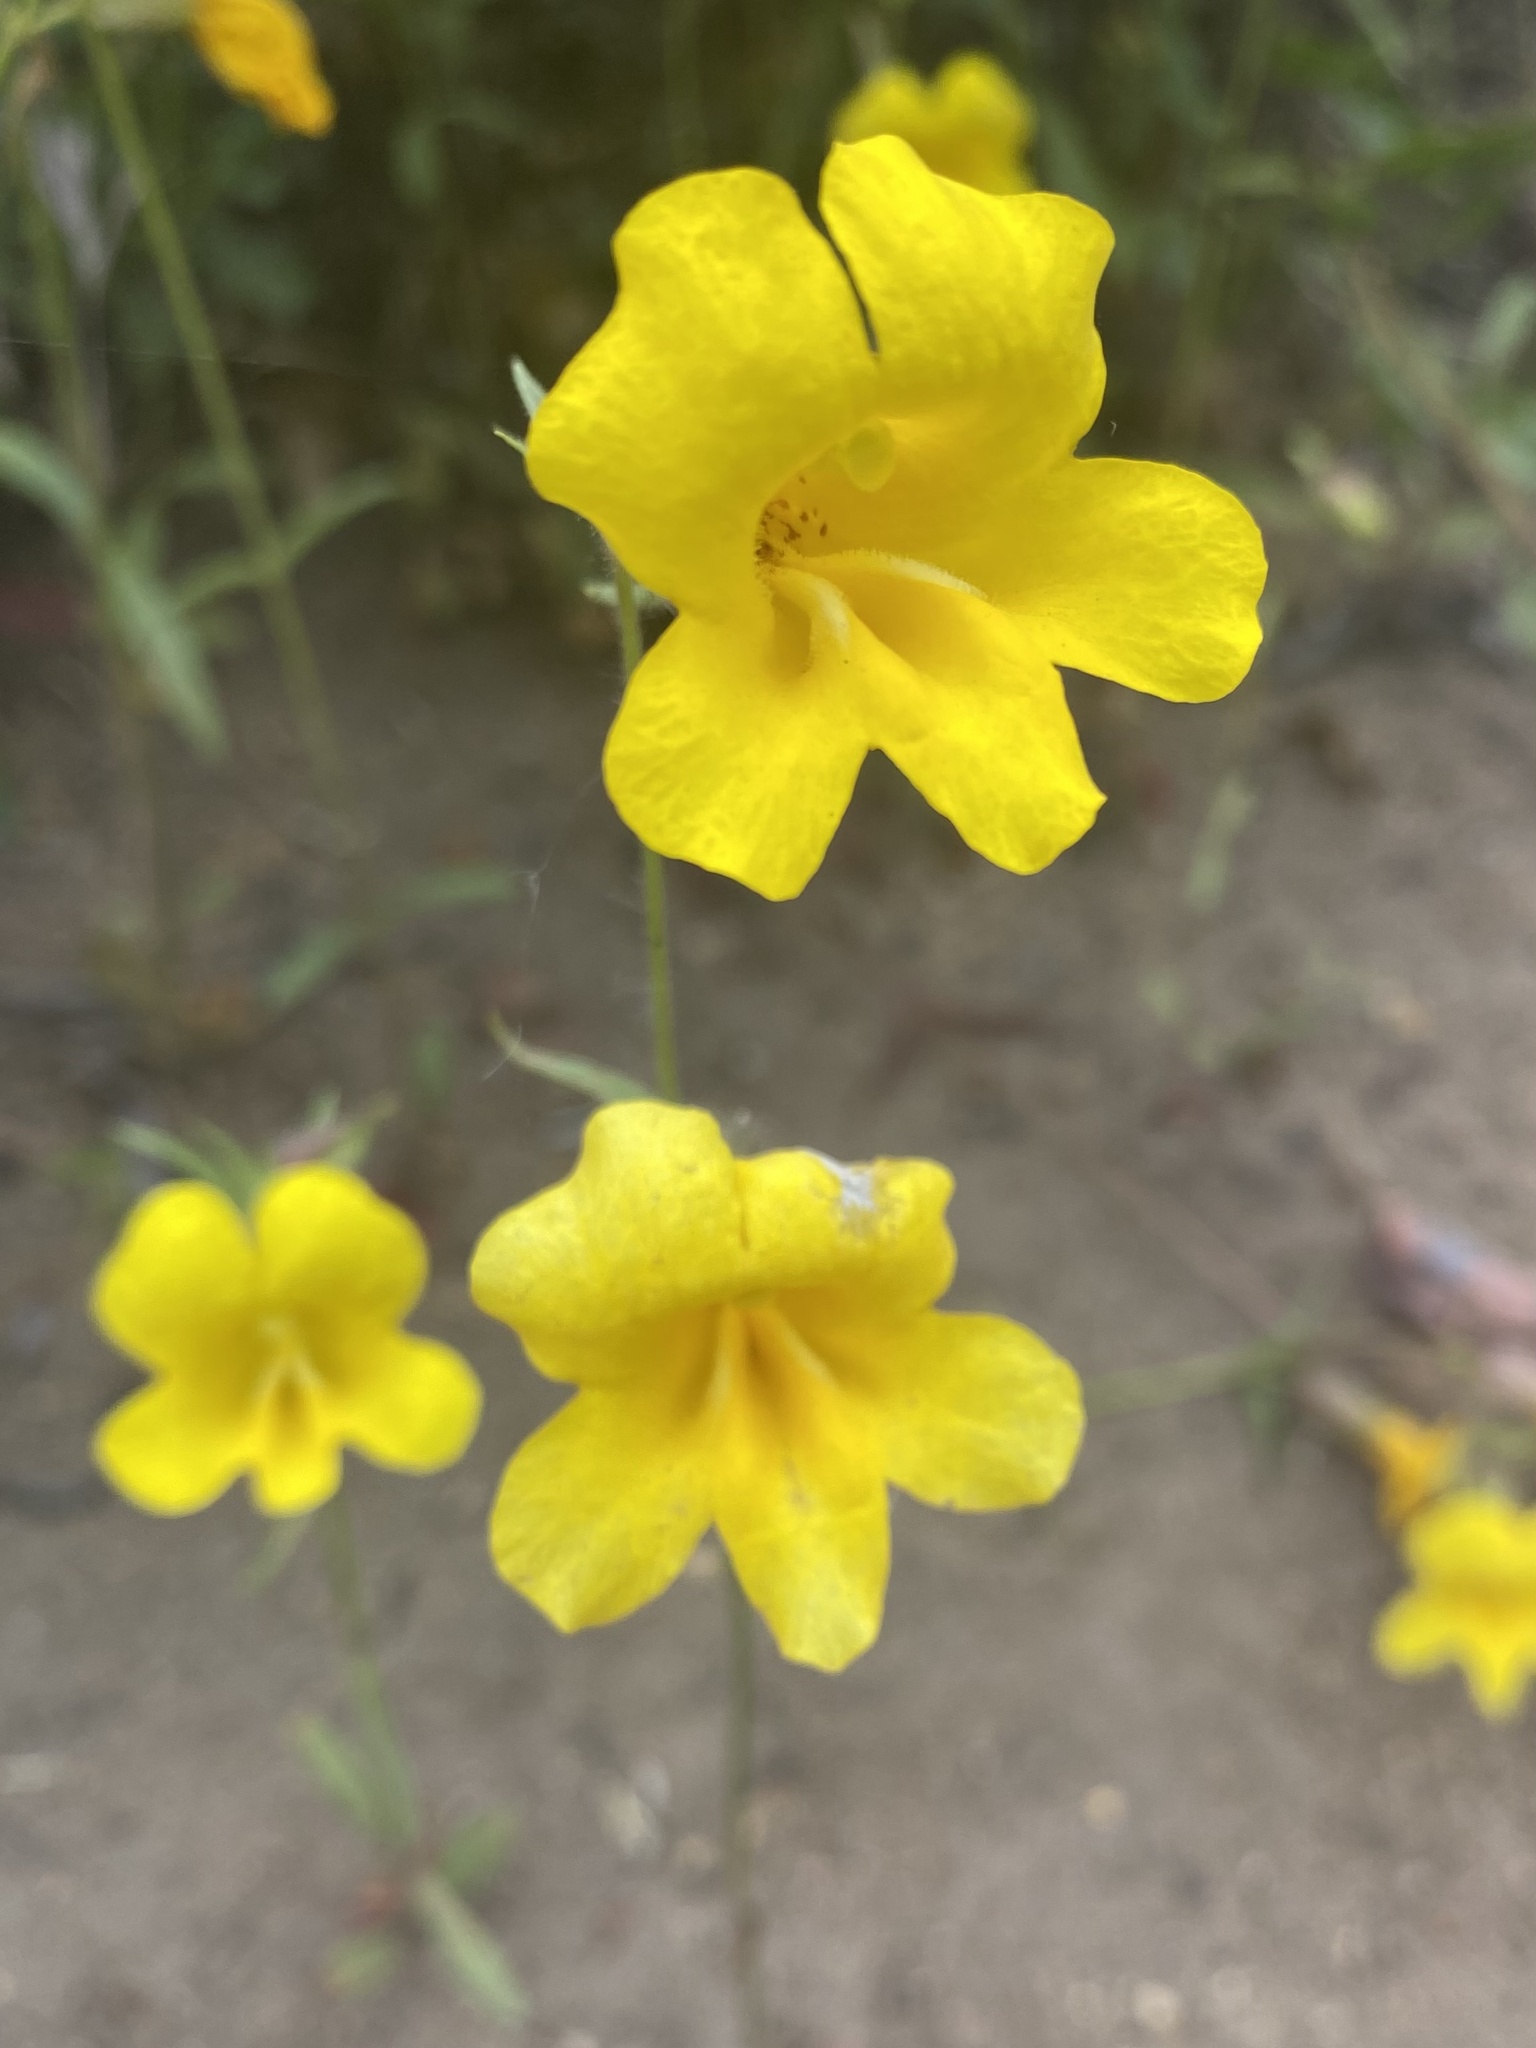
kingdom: Plantae
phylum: Tracheophyta
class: Magnoliopsida
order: Lamiales
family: Phrymaceae
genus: Diplacus
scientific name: Diplacus brevipes
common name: Wide-throat yellow monkey-flower
